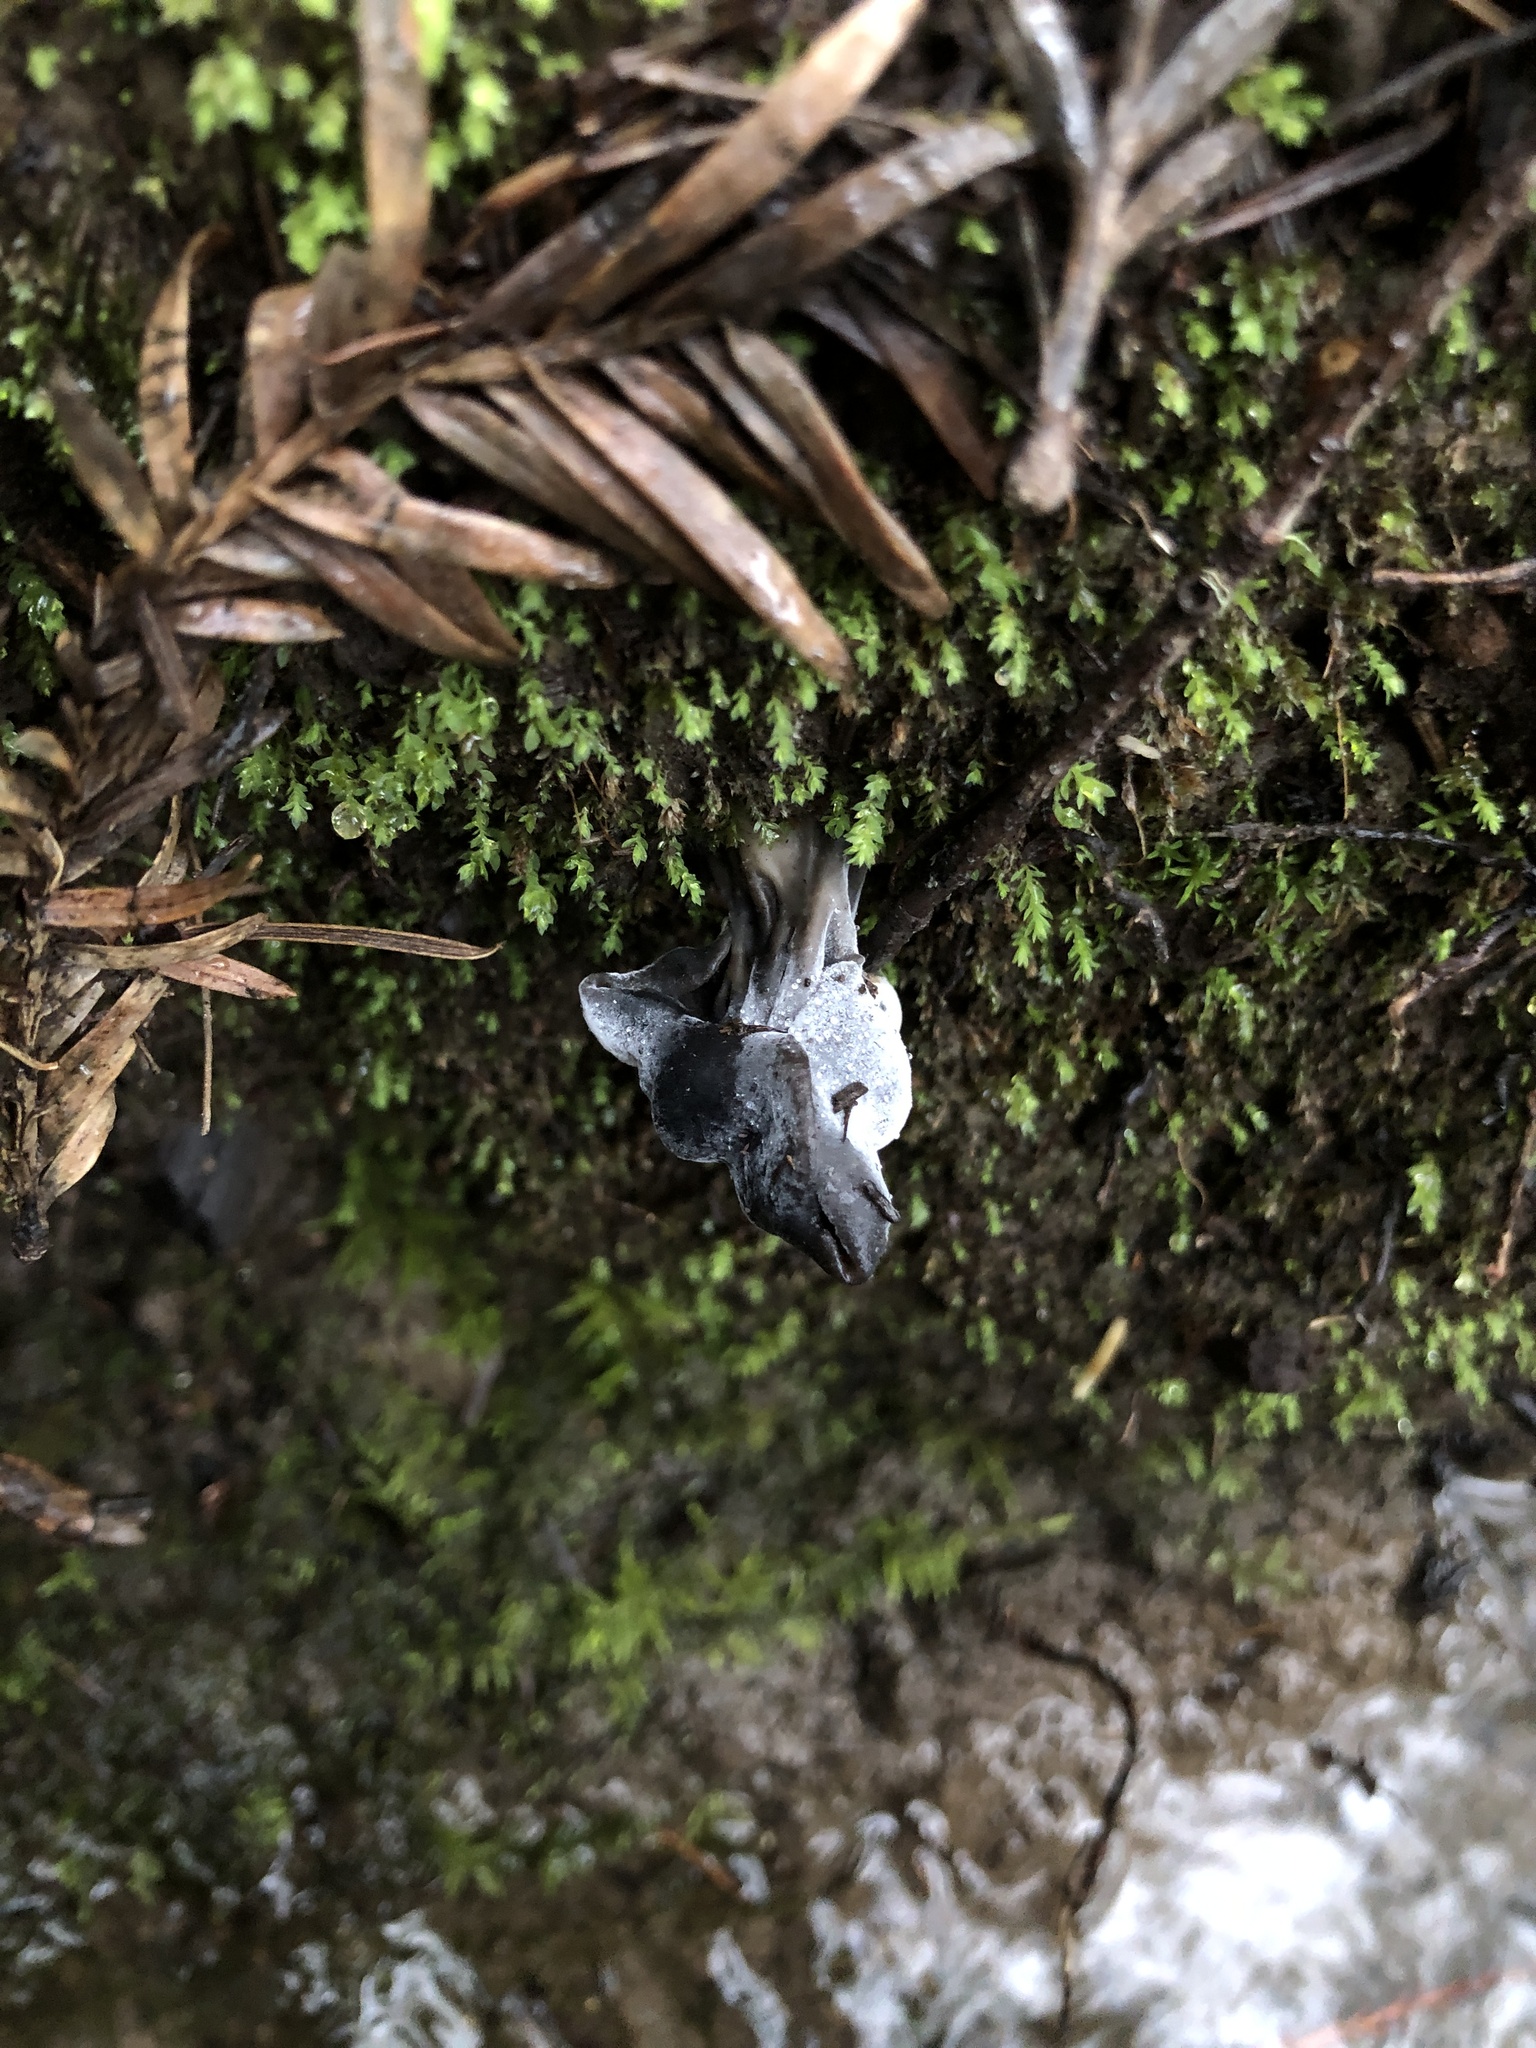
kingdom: Fungi
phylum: Ascomycota
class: Sordariomycetes
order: Hypocreales
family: Hypocreaceae
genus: Hypomyces
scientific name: Hypomyces cervinus
